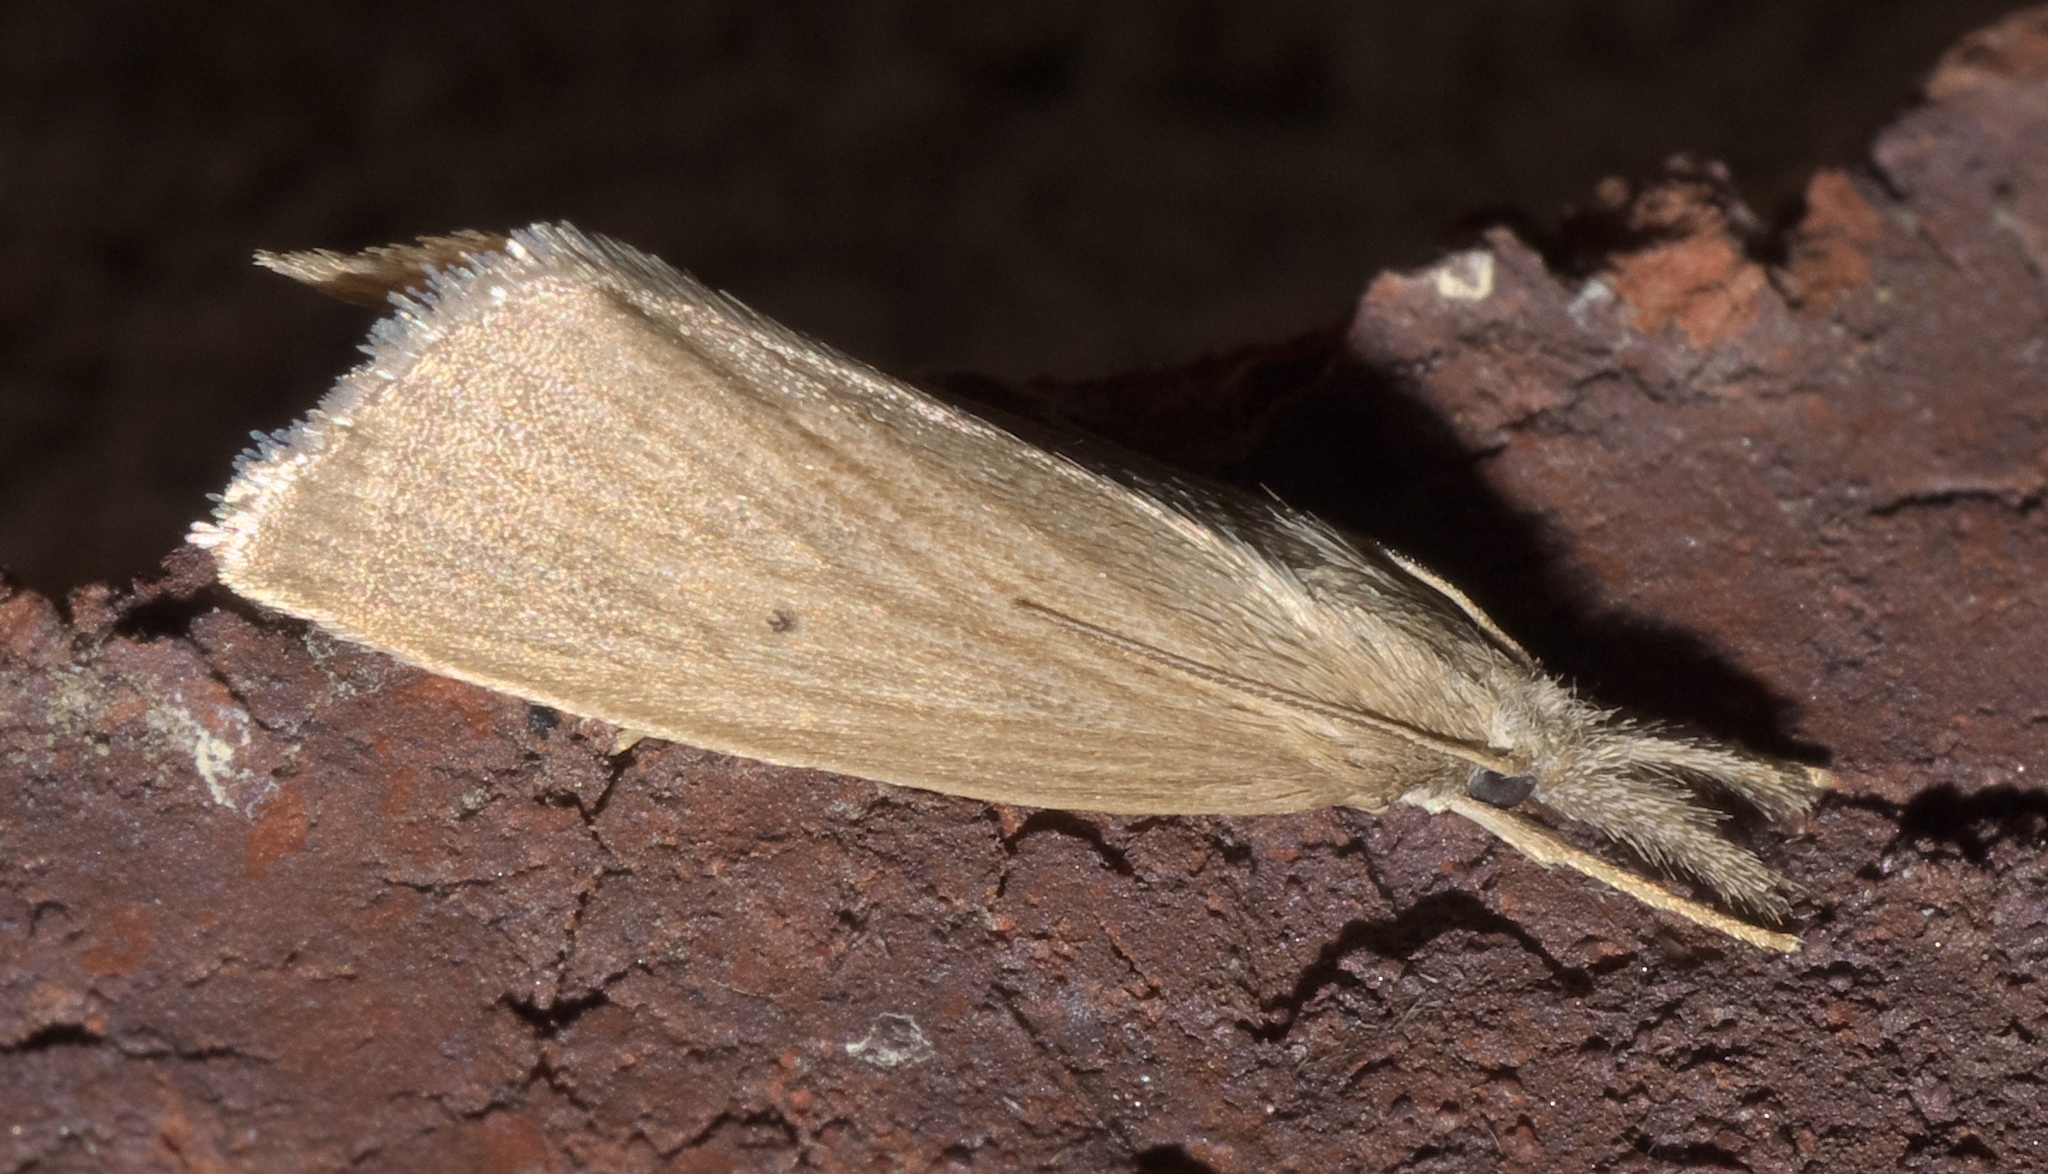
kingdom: Animalia
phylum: Arthropoda
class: Insecta
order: Lepidoptera
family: Crambidae
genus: Diatraea
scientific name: Diatraea evanescens
